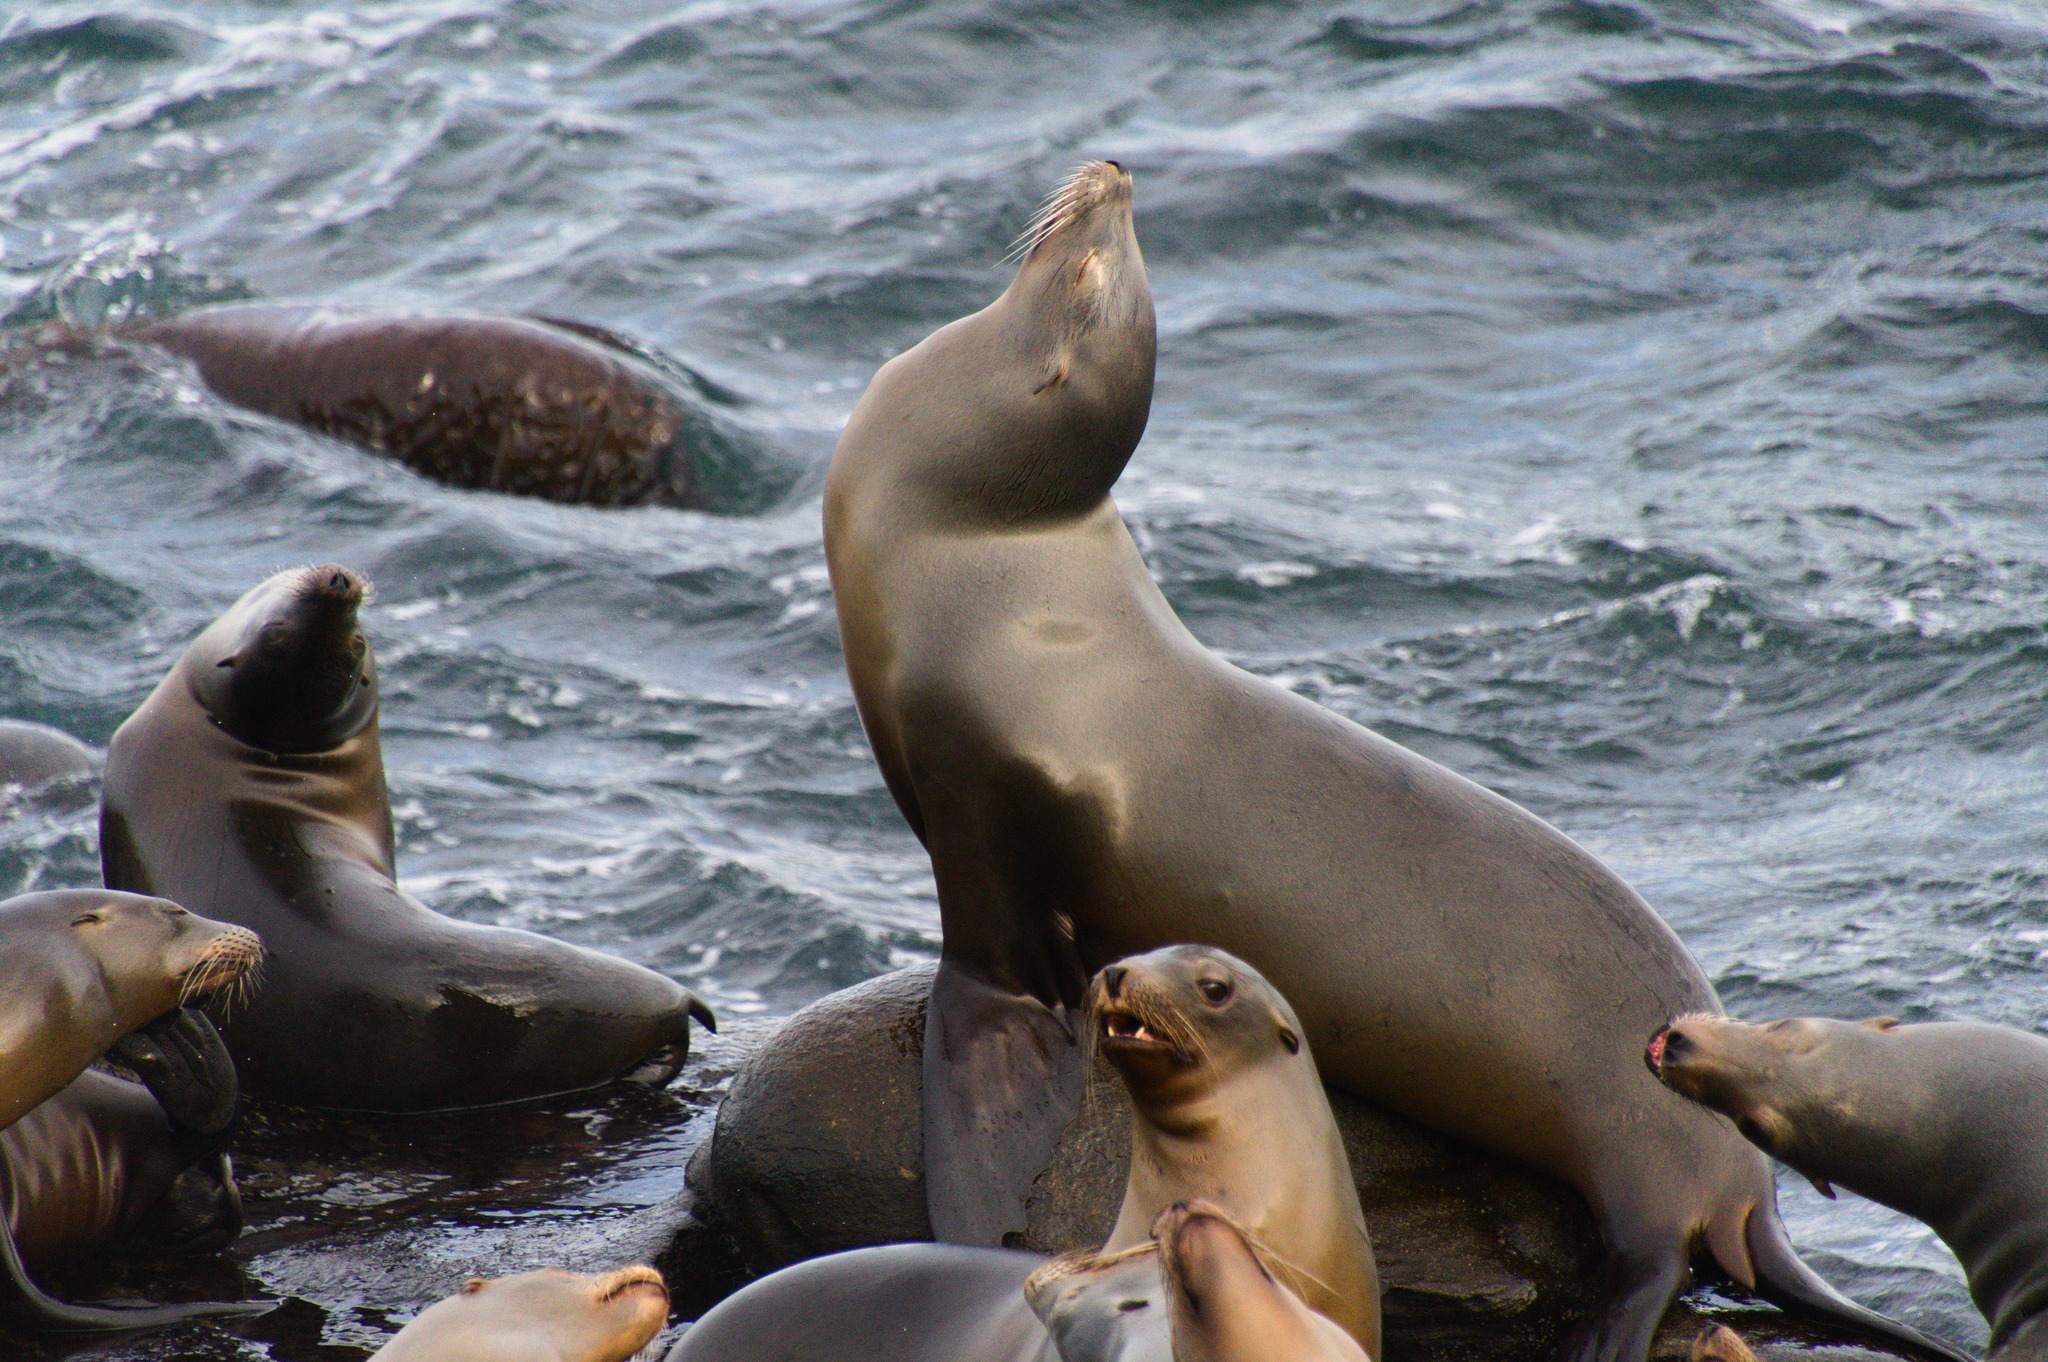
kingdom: Animalia
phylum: Chordata
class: Mammalia
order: Carnivora
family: Otariidae
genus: Zalophus
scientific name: Zalophus californianus
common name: California sea lion
